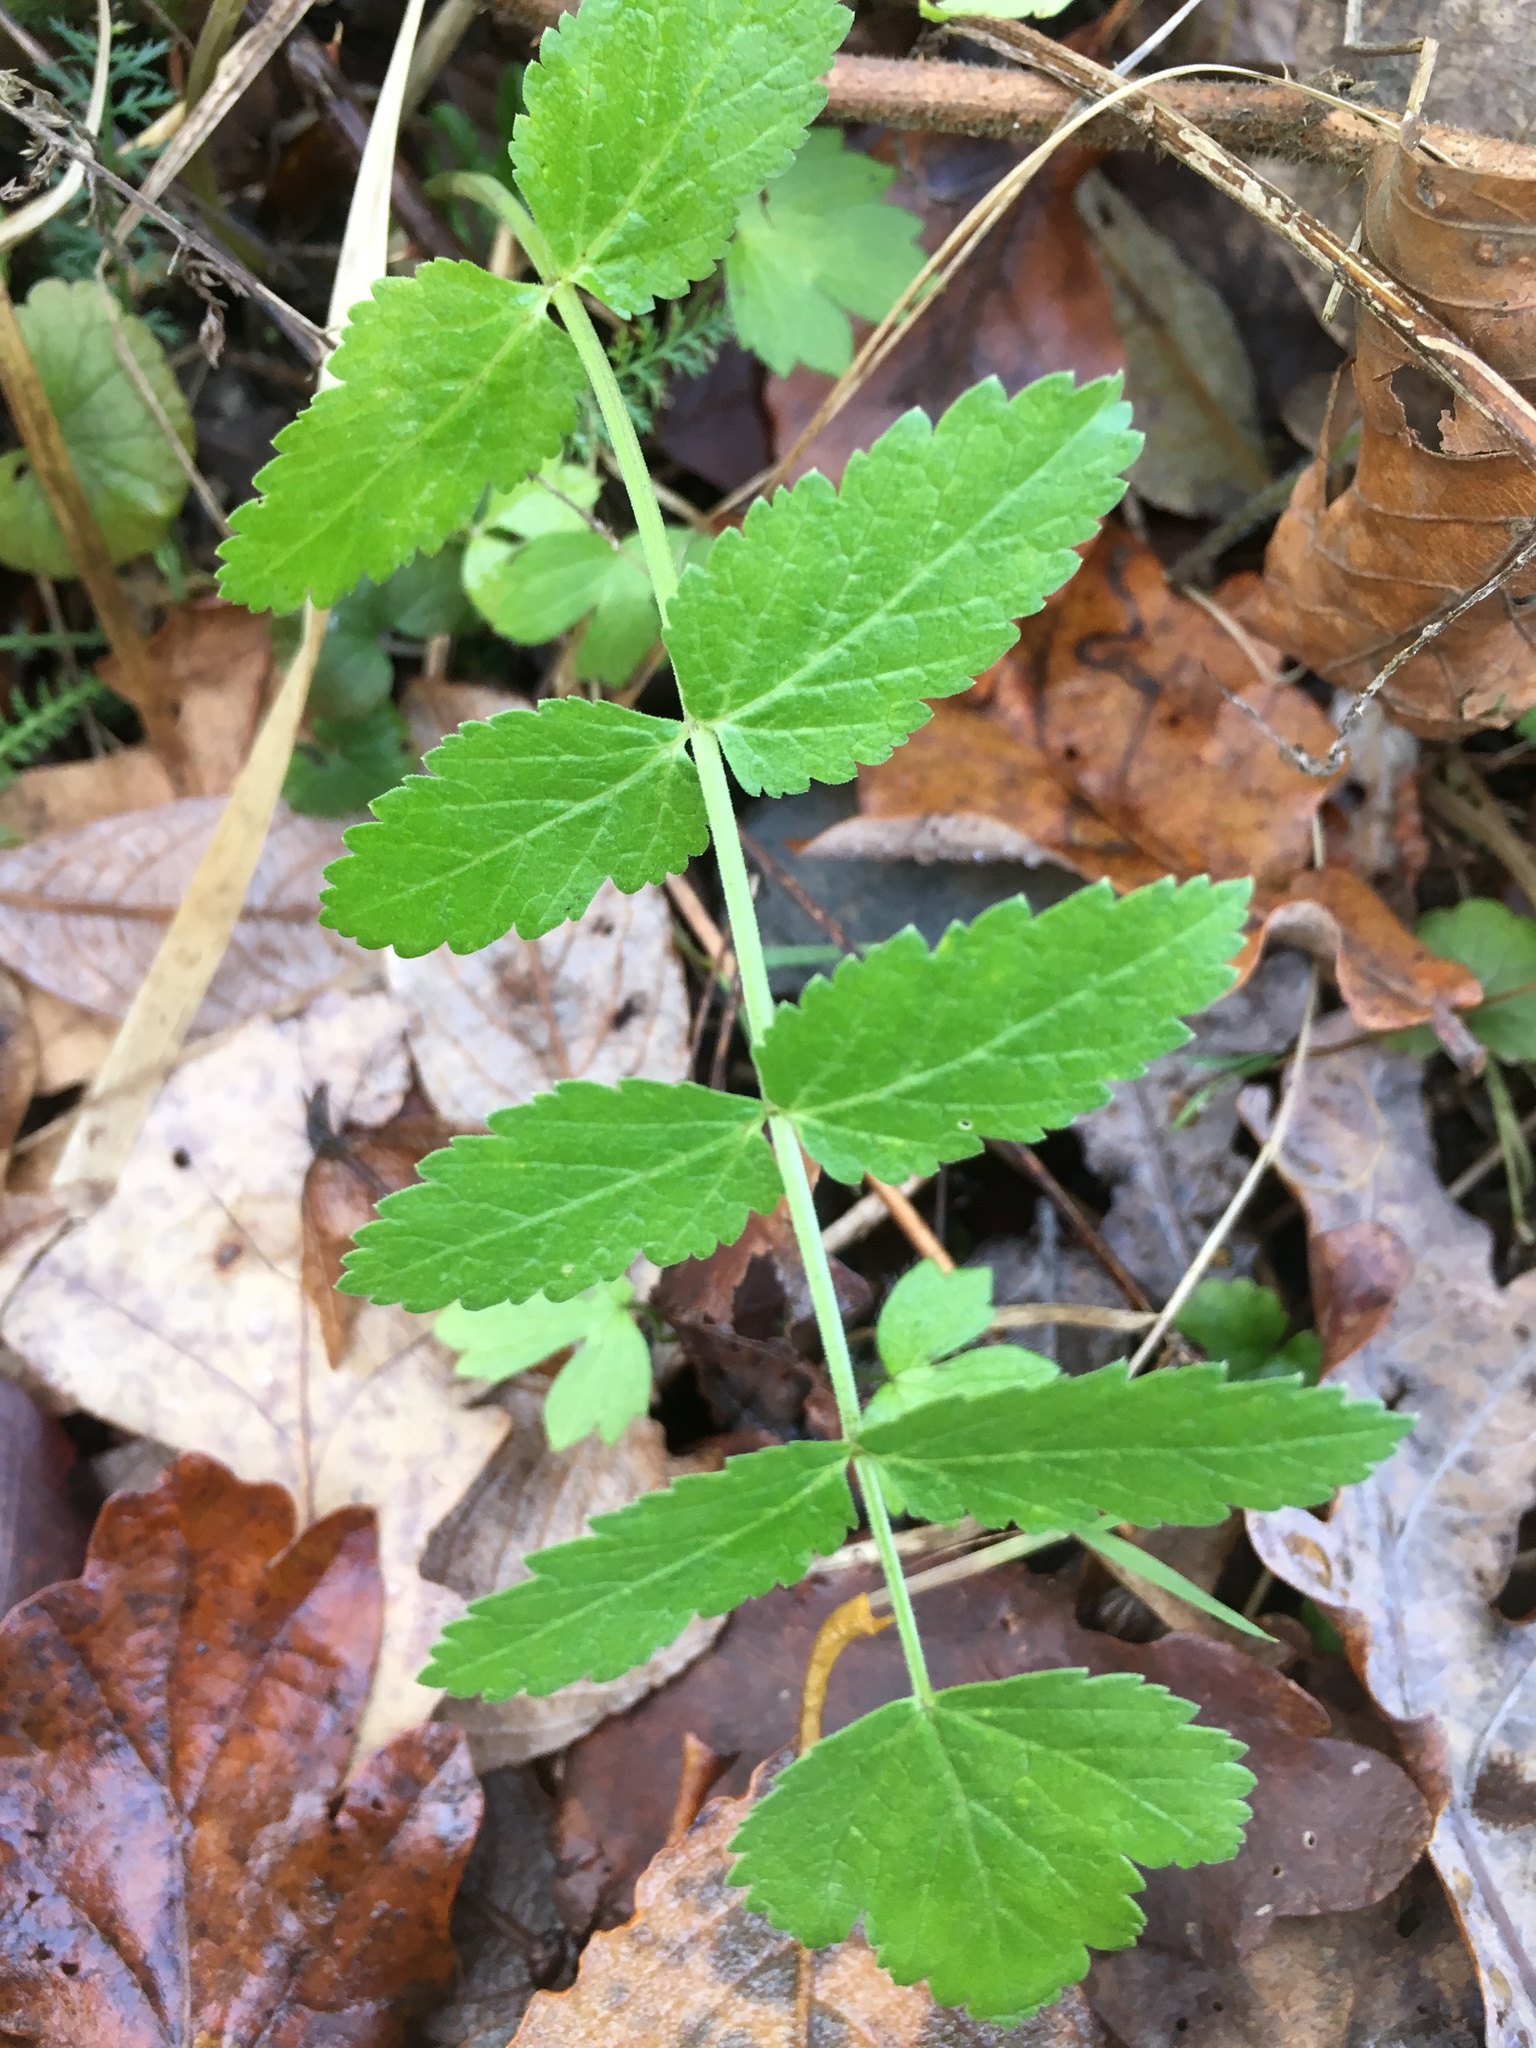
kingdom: Plantae
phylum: Tracheophyta
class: Magnoliopsida
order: Apiales
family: Apiaceae
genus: Pastinaca
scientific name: Pastinaca sativa
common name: Wild parsnip
